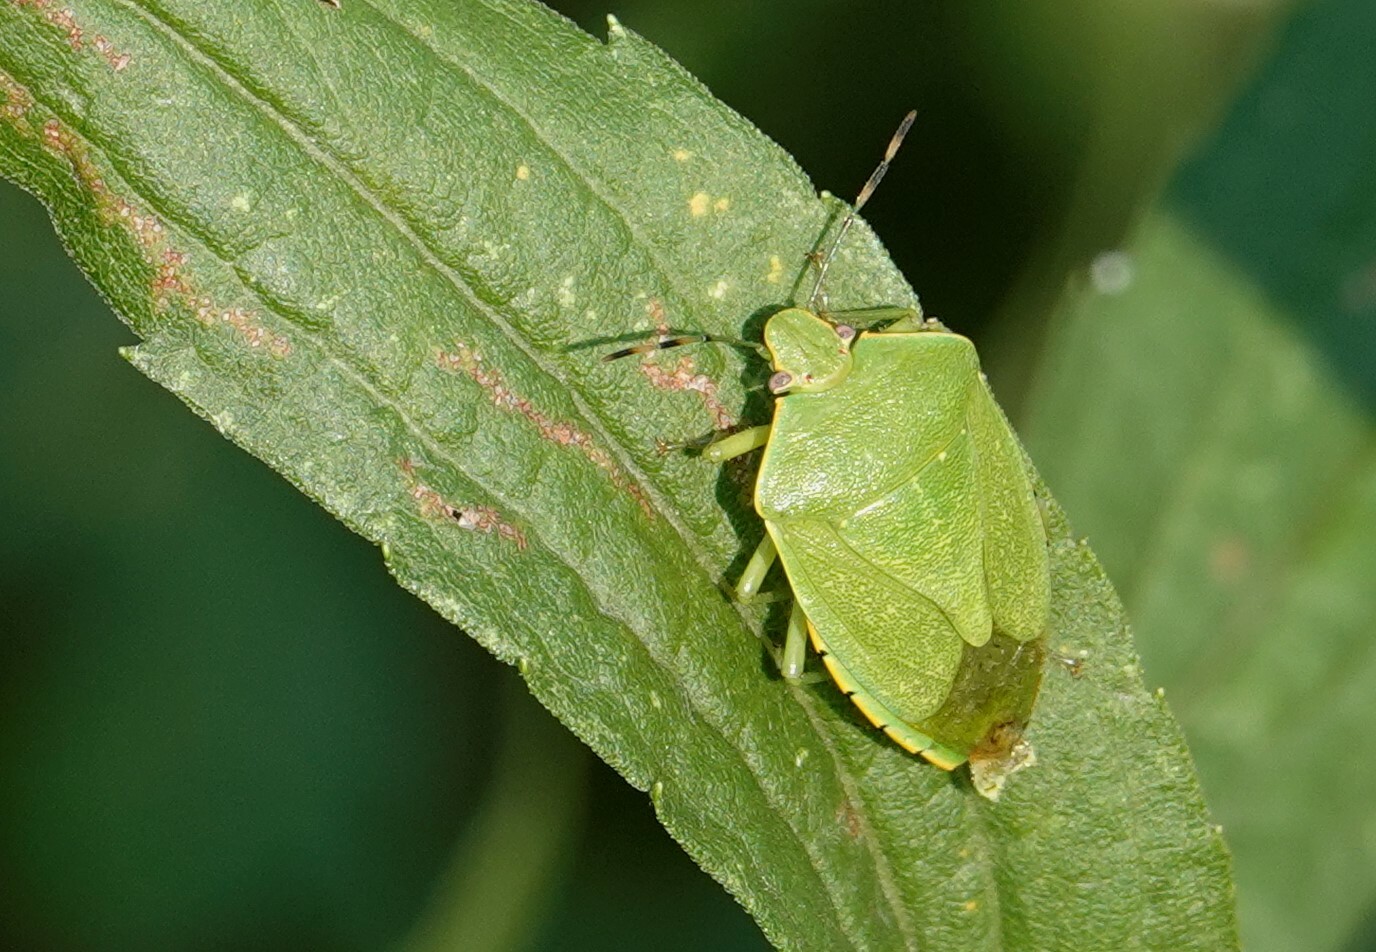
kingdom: Animalia
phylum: Arthropoda
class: Insecta
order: Hemiptera
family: Pentatomidae
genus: Chinavia
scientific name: Chinavia hilaris
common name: Green stink bug
